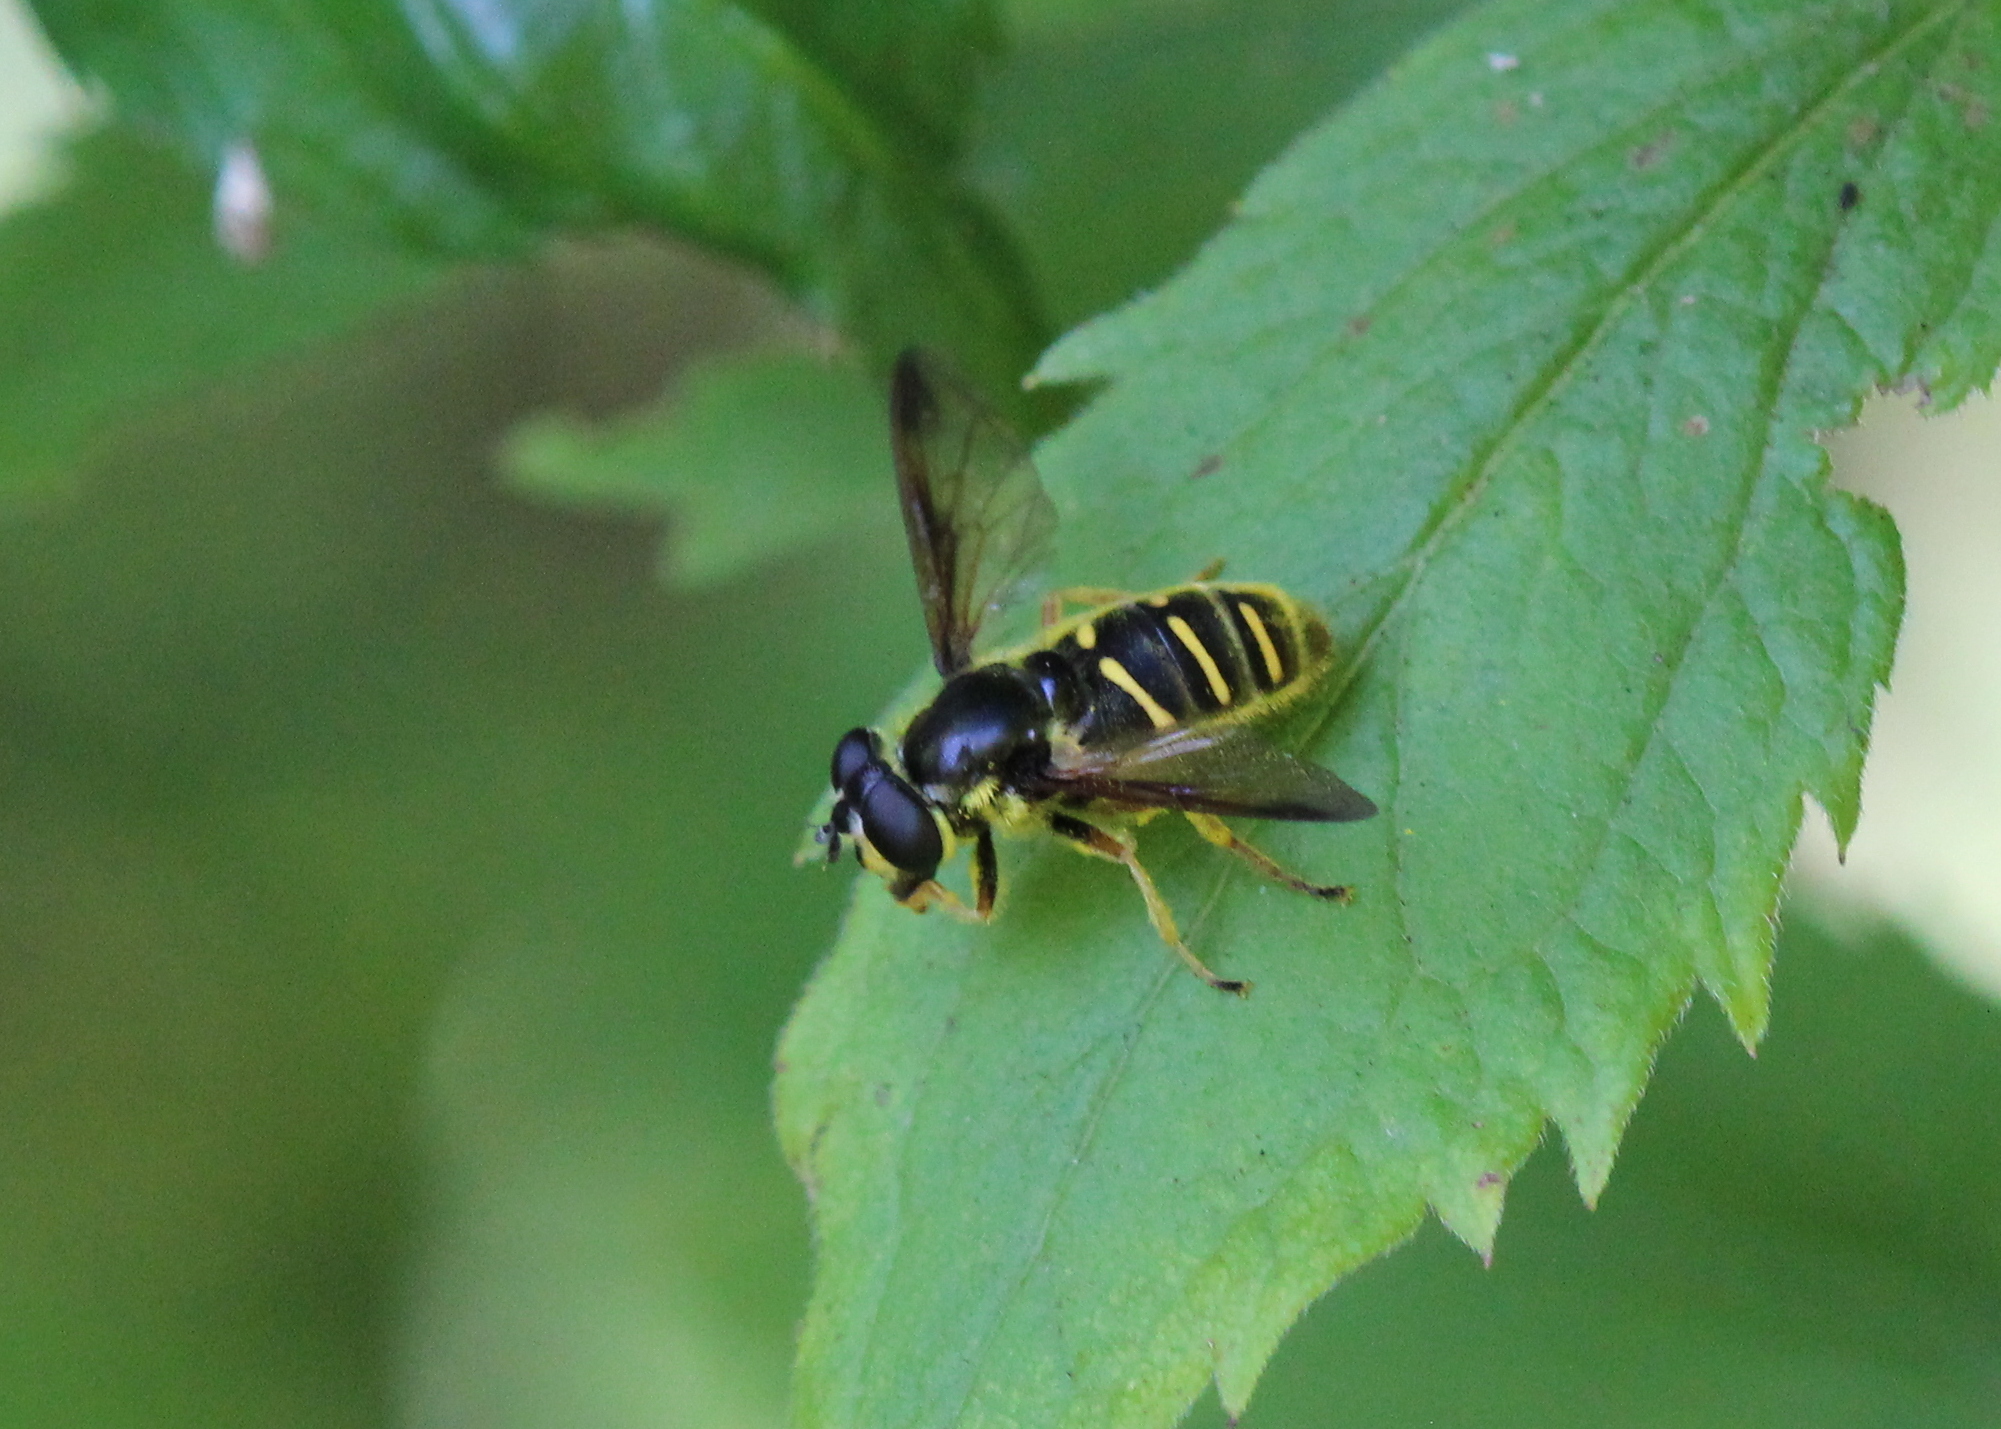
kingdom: Animalia
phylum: Arthropoda
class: Insecta
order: Diptera
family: Syrphidae
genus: Sericomyia
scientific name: Sericomyia chrysotoxoides
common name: Oblique-banded pond fly
